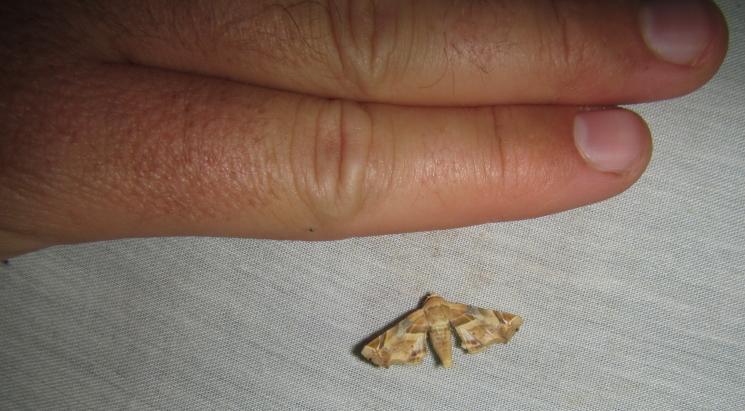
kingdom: Animalia
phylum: Arthropoda
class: Insecta
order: Lepidoptera
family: Euteliidae
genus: Eutelia
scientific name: Eutelia
